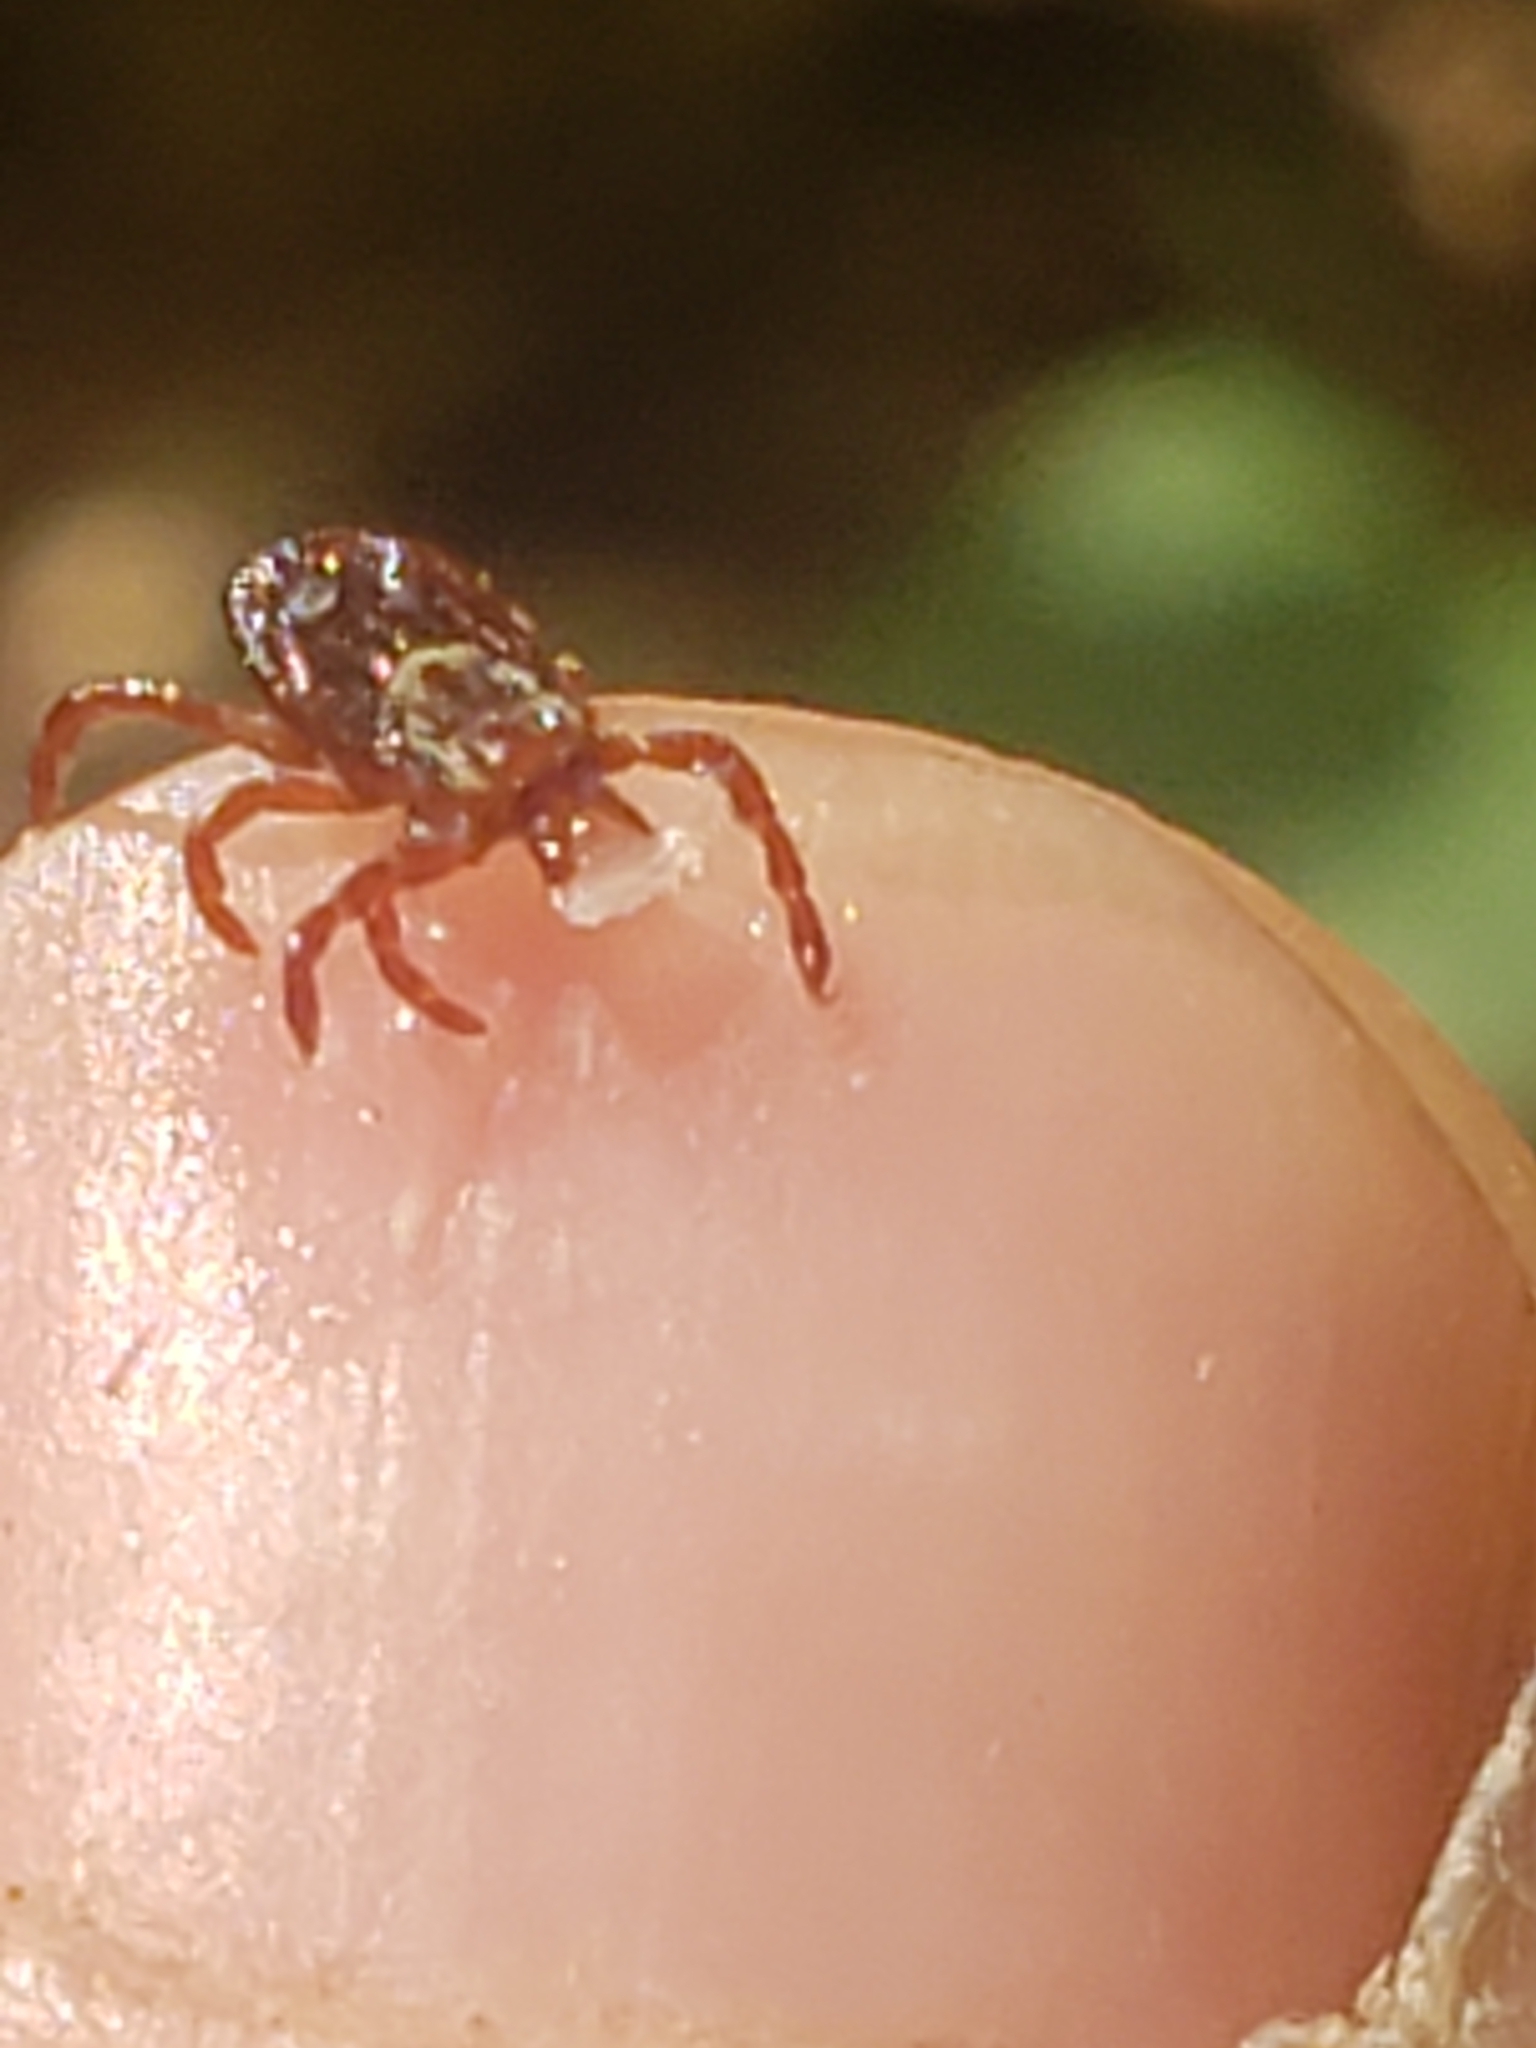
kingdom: Animalia
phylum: Arthropoda
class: Arachnida
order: Ixodida
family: Ixodidae
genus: Dermacentor
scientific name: Dermacentor variabilis
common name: American dog tick
